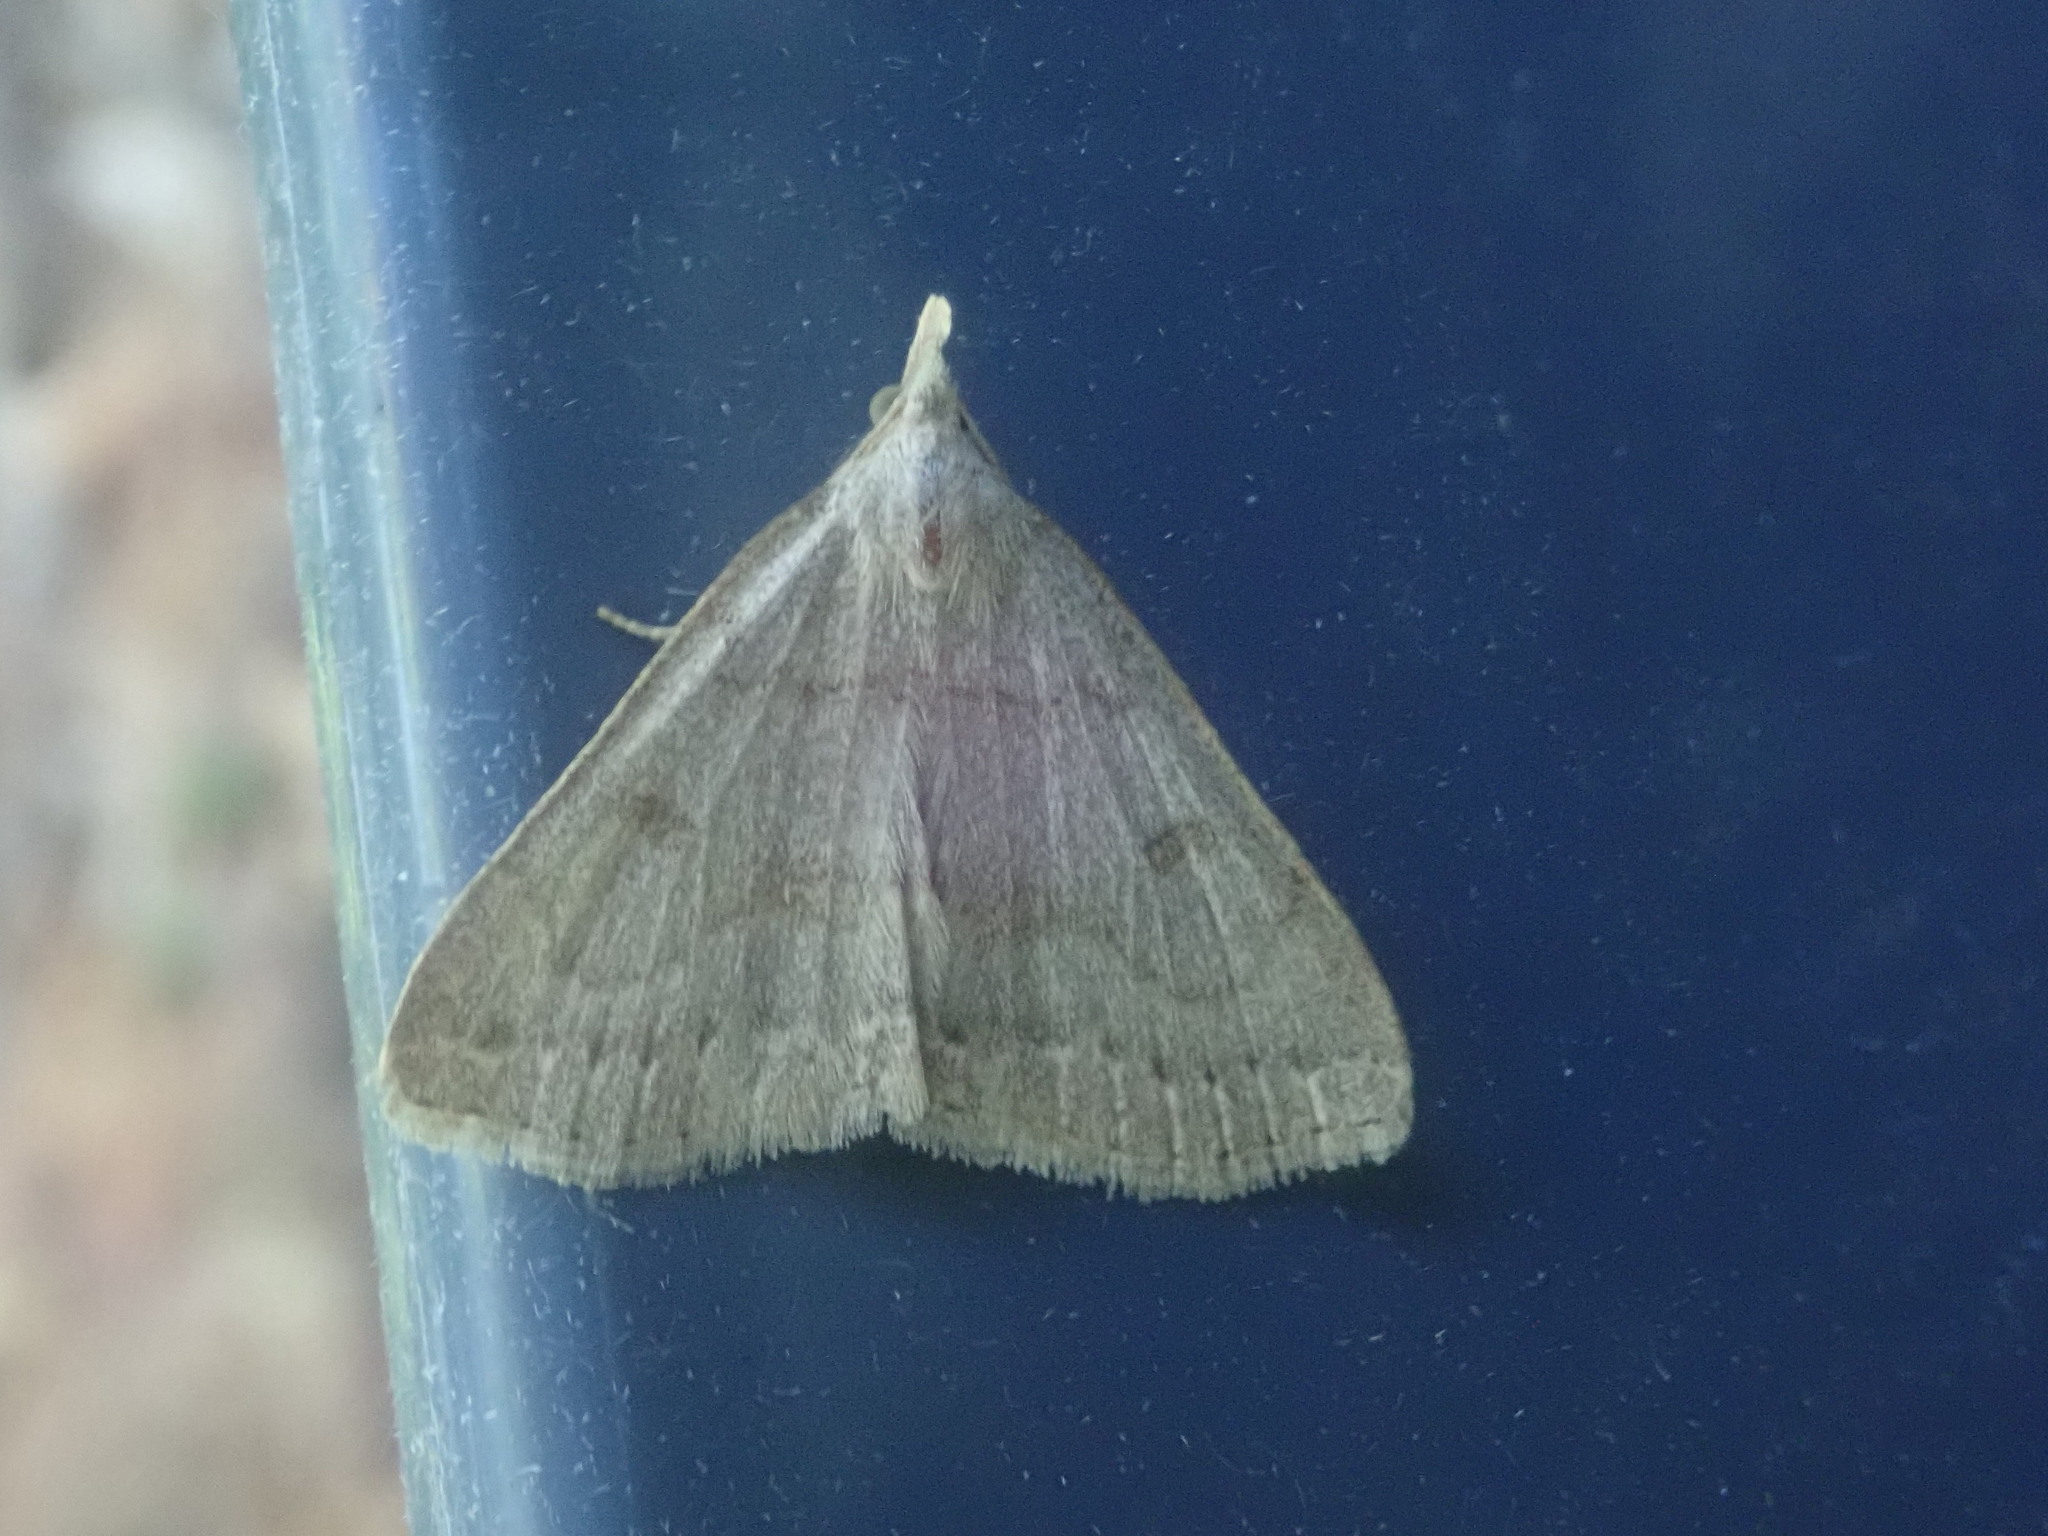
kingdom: Animalia
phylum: Arthropoda
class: Insecta
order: Lepidoptera
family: Erebidae
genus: Macrochilo
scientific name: Macrochilo morbidalis
